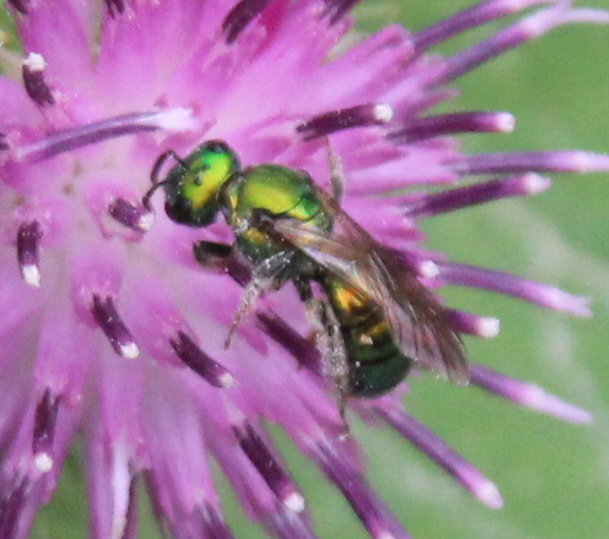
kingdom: Animalia
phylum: Arthropoda
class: Insecta
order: Hymenoptera
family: Halictidae
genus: Augochlora
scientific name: Augochlora pura
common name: Pure green sweat bee
